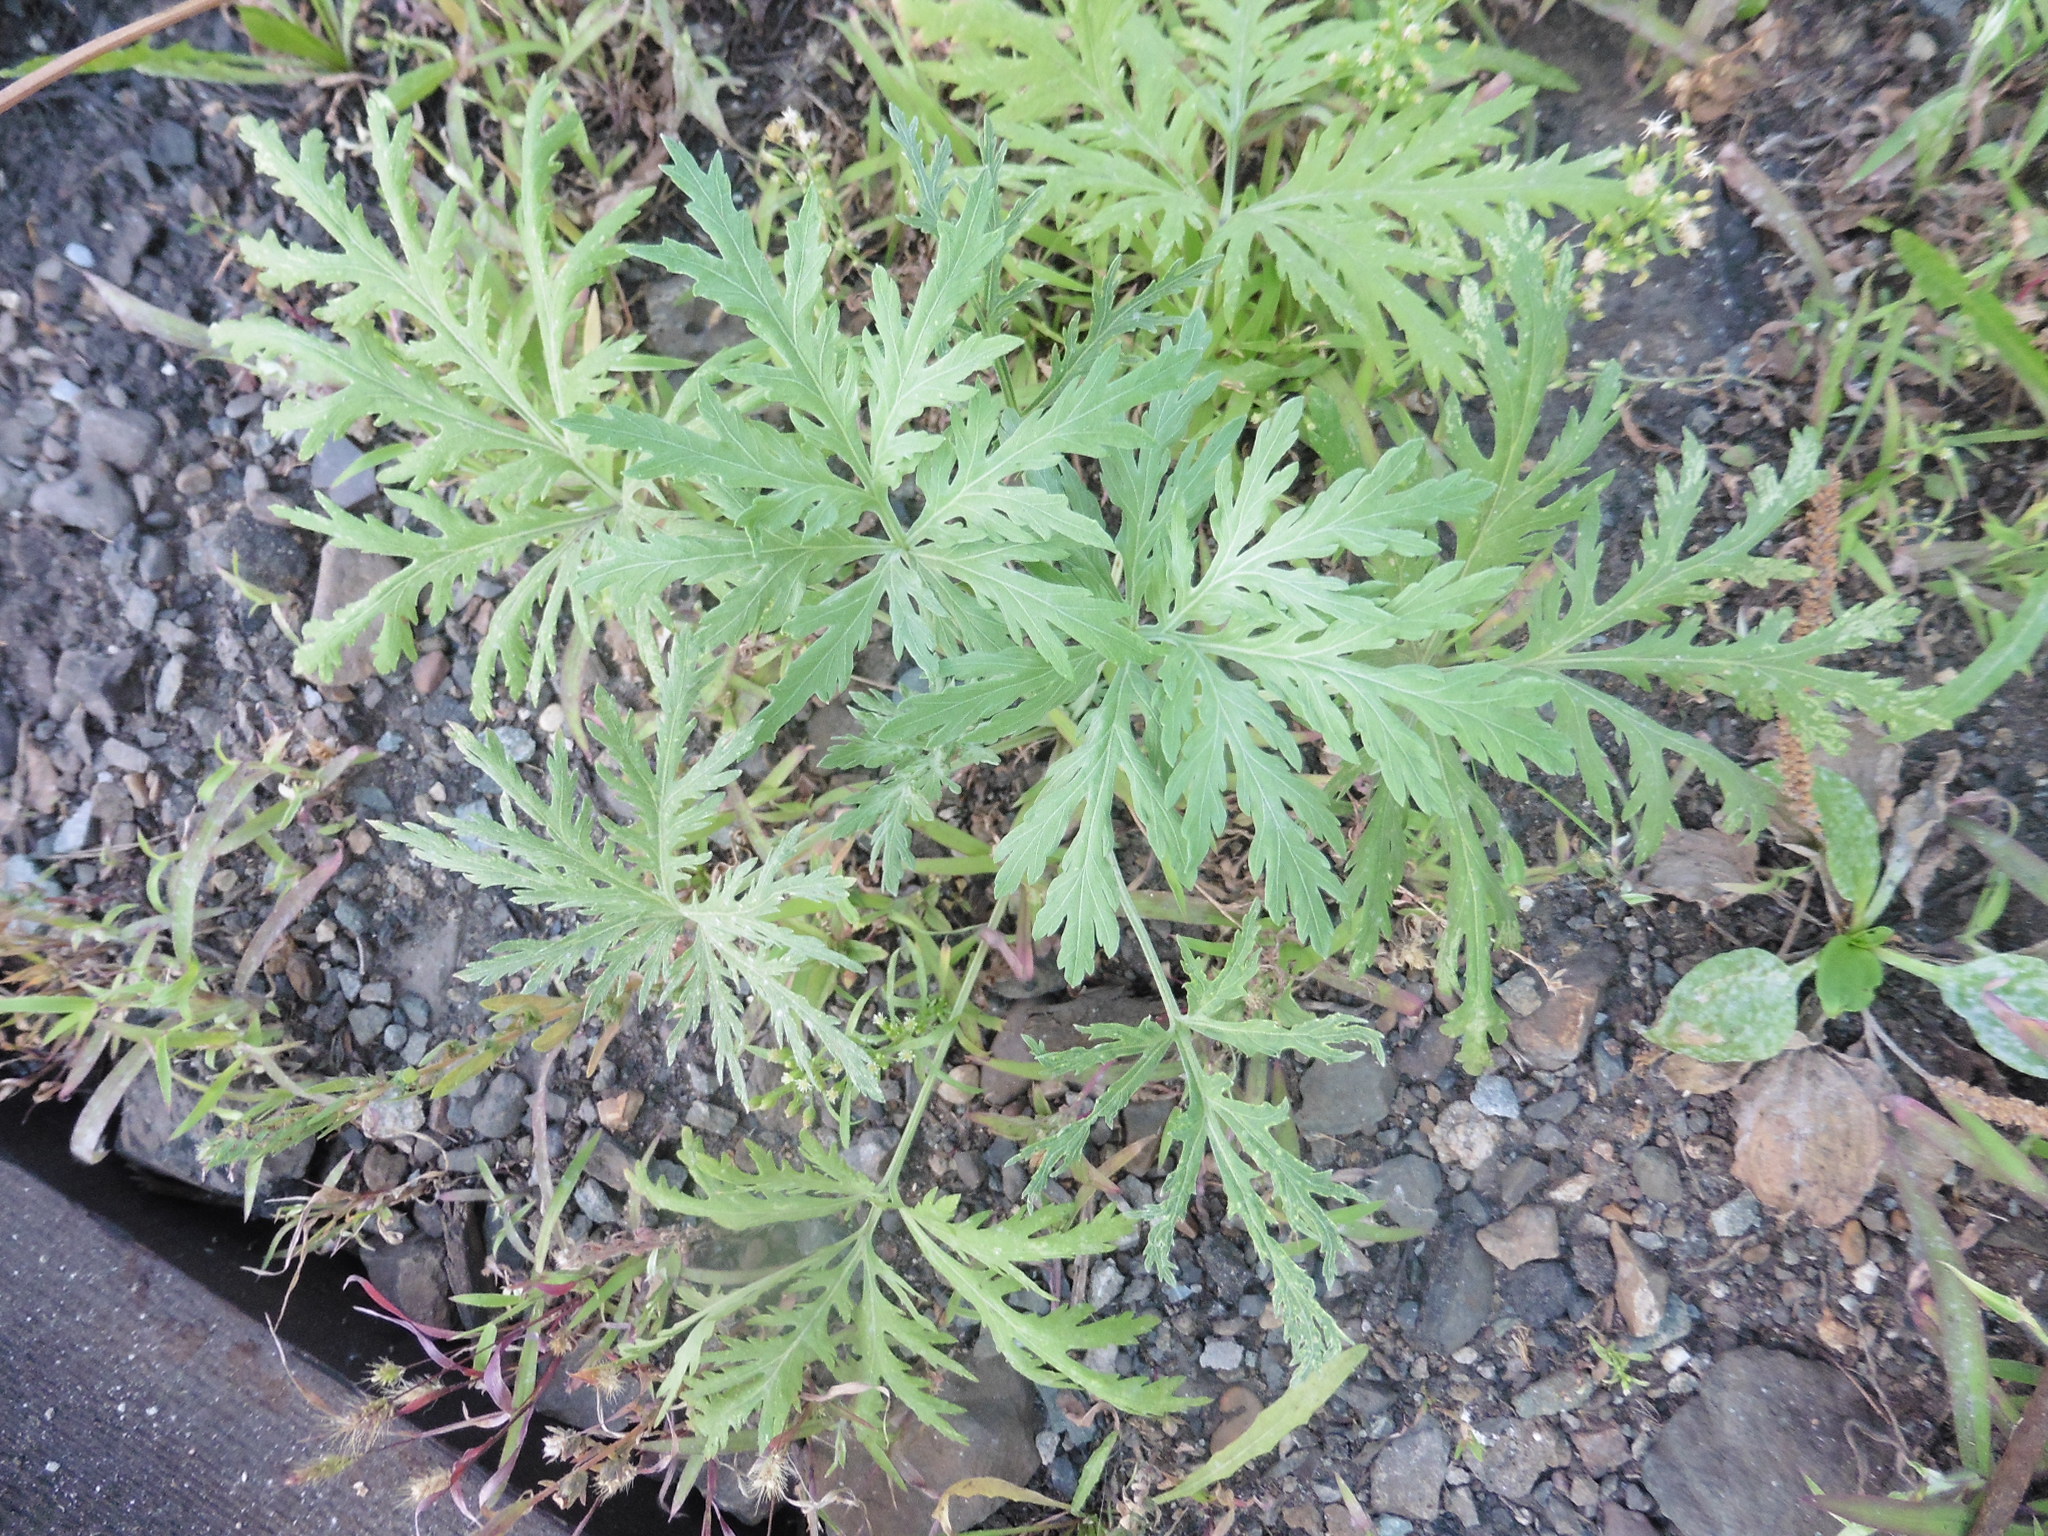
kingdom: Plantae
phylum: Tracheophyta
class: Magnoliopsida
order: Asterales
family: Asteraceae
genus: Artemisia
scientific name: Artemisia sieversiana
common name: Sieversian wormwood
